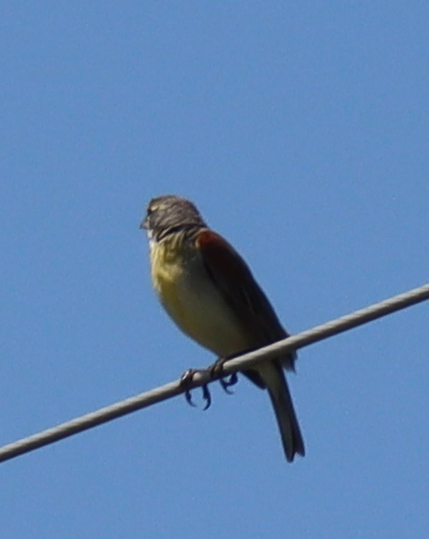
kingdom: Animalia
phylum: Chordata
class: Aves
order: Passeriformes
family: Cardinalidae
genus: Spiza
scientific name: Spiza americana
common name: Dickcissel
